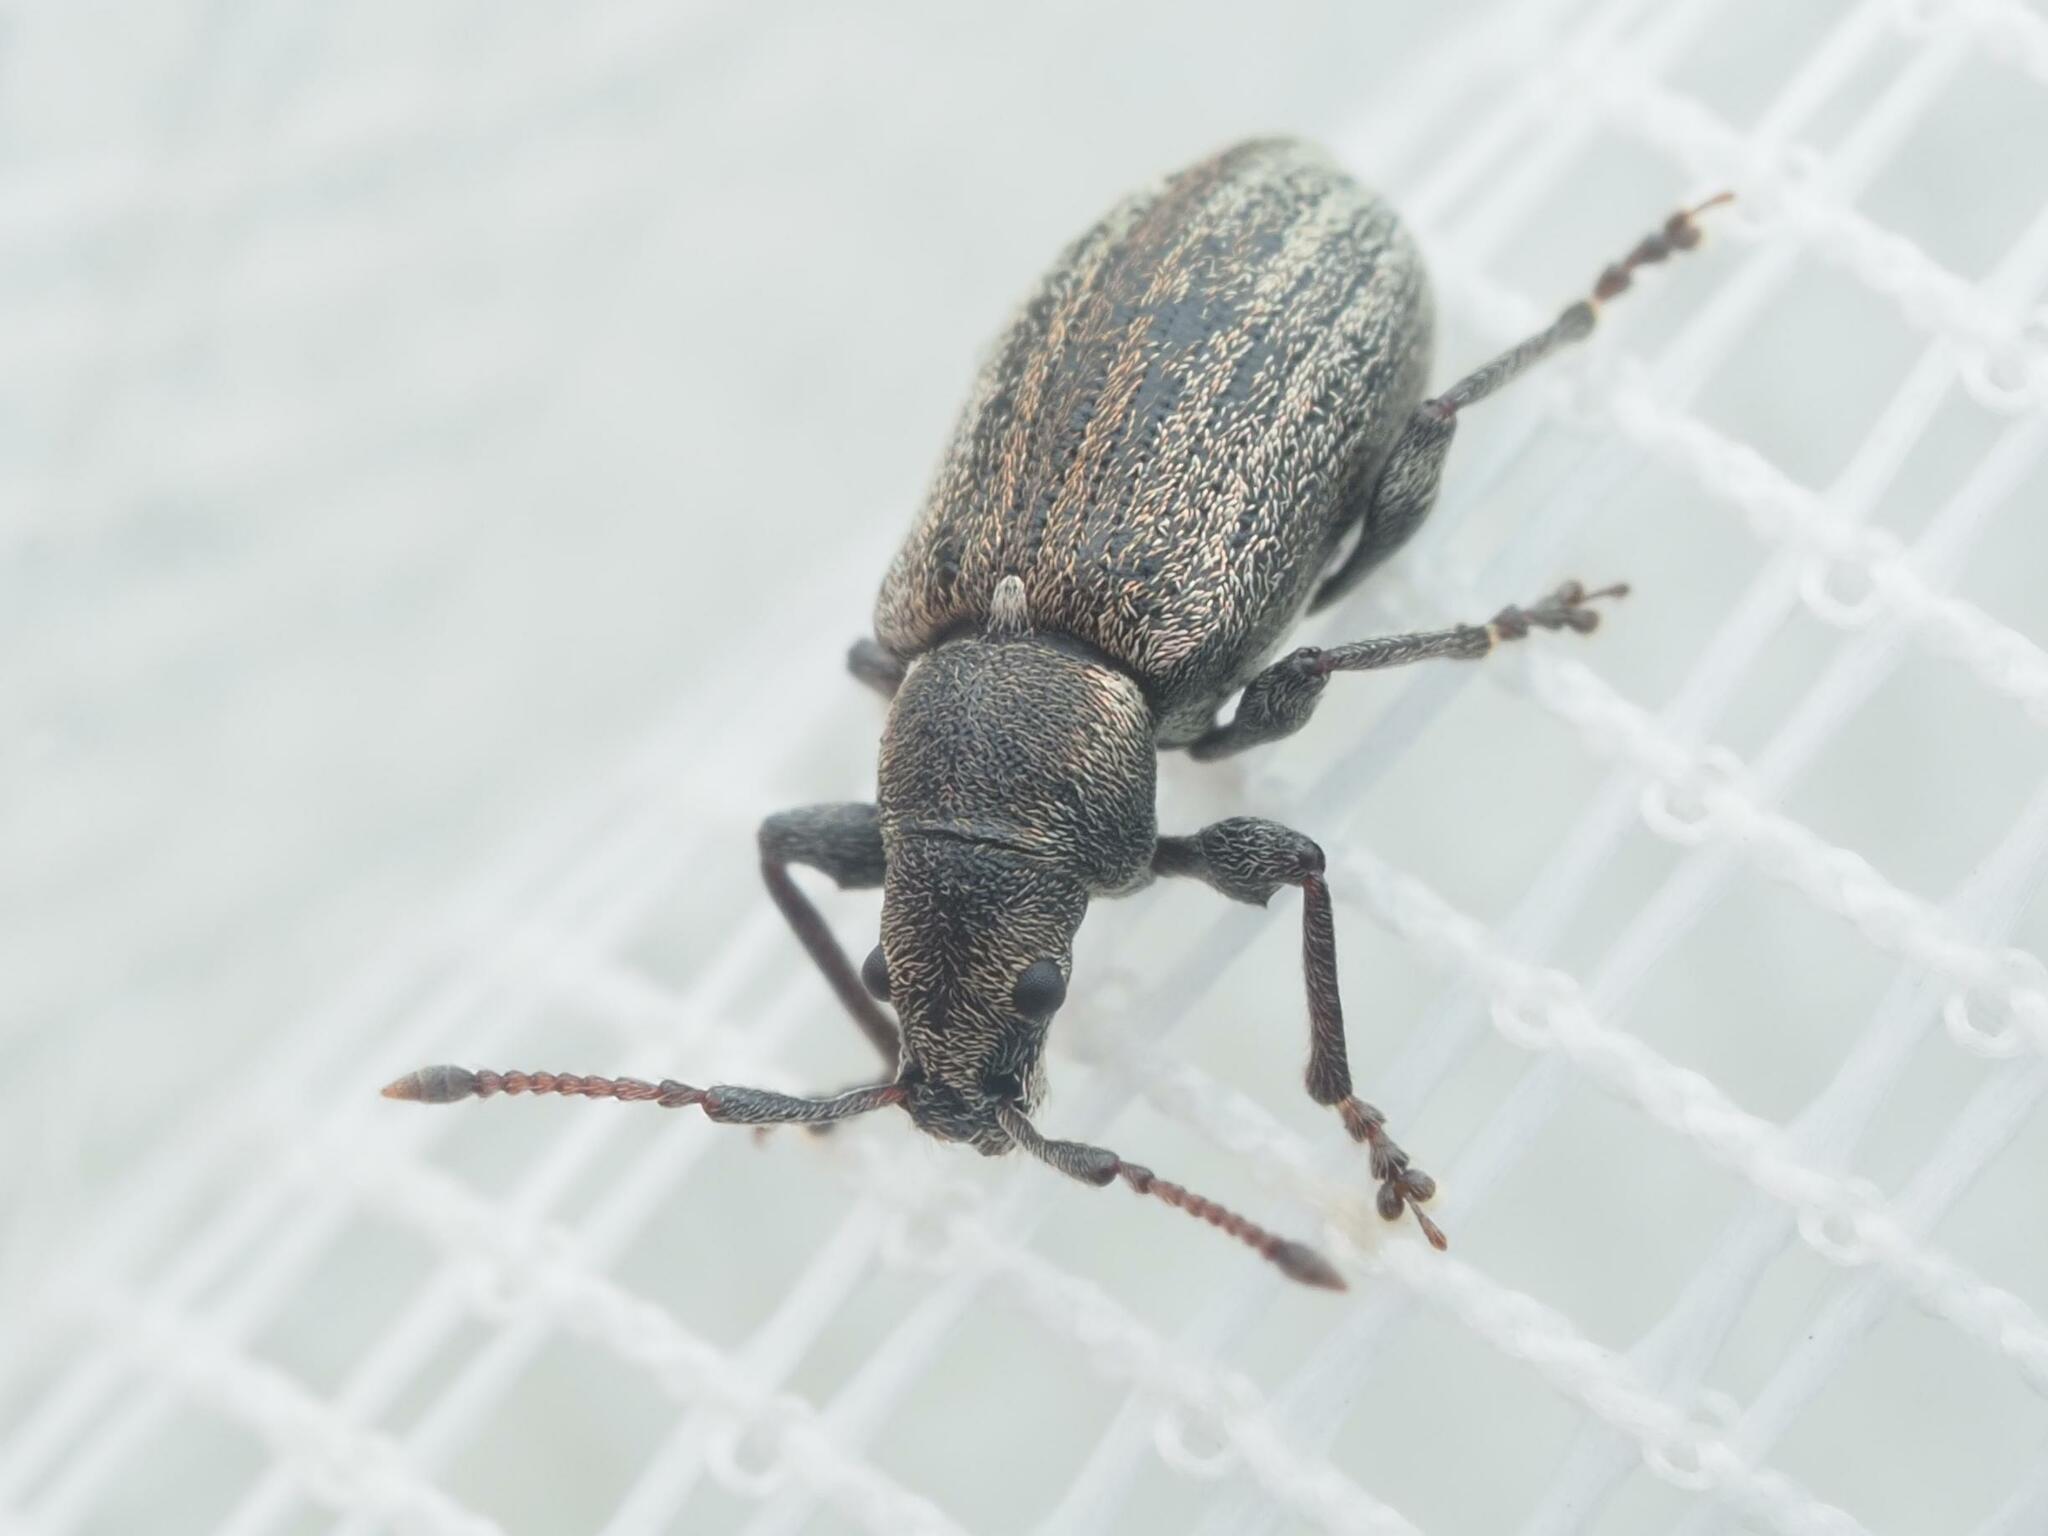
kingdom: Animalia
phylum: Arthropoda
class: Insecta
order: Coleoptera
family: Curculionidae
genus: Phyllobius
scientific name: Phyllobius pyri
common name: Common leaf weevil
